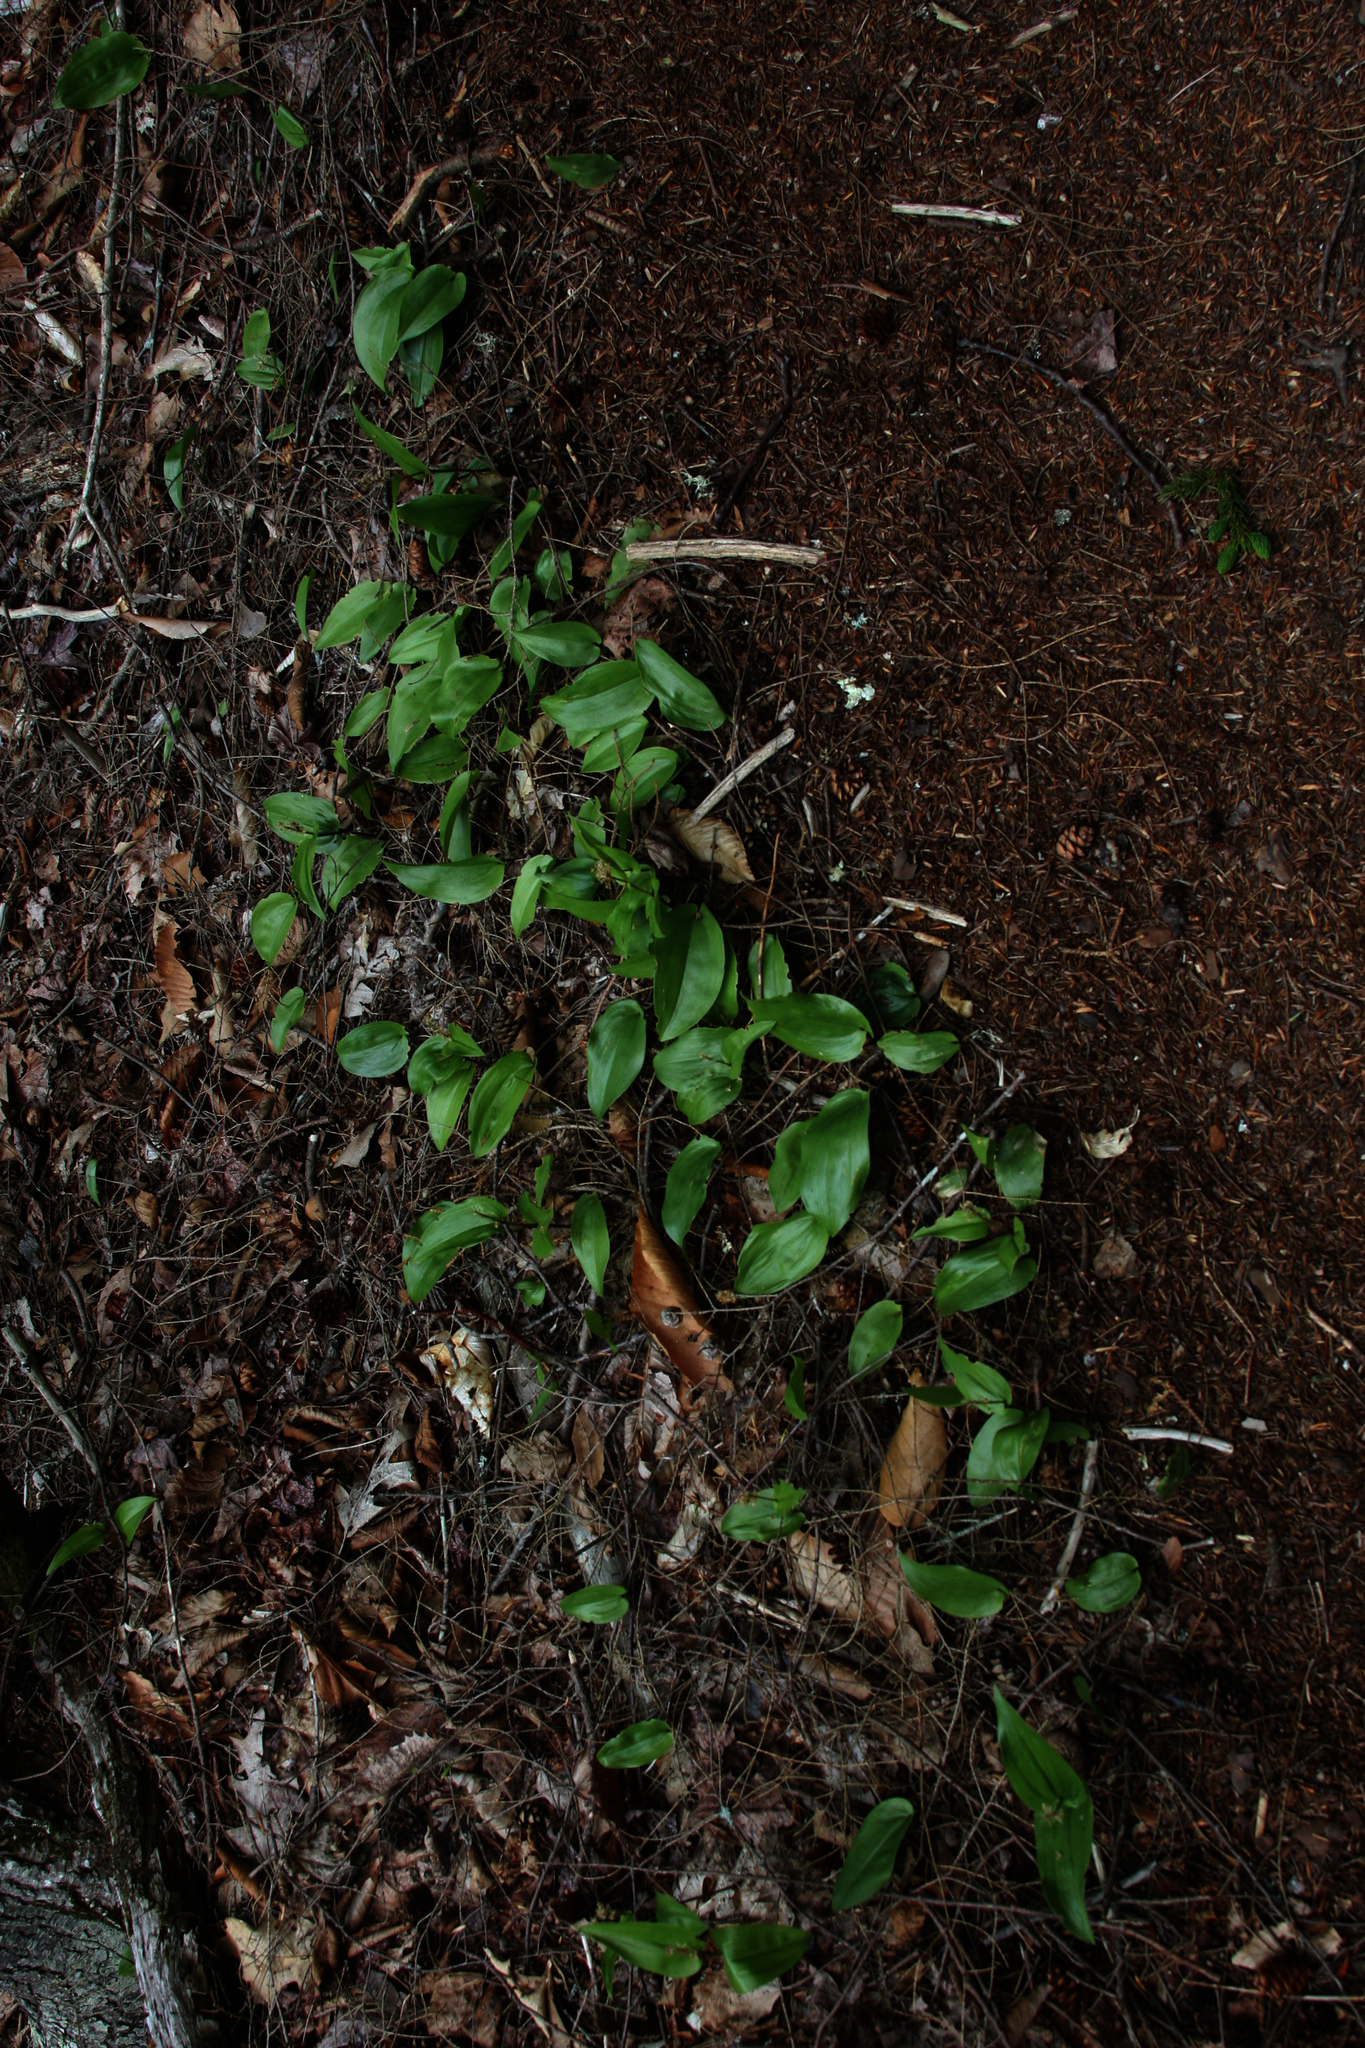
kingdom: Plantae
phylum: Tracheophyta
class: Liliopsida
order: Asparagales
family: Asparagaceae
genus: Maianthemum
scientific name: Maianthemum canadense
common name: False lily-of-the-valley
